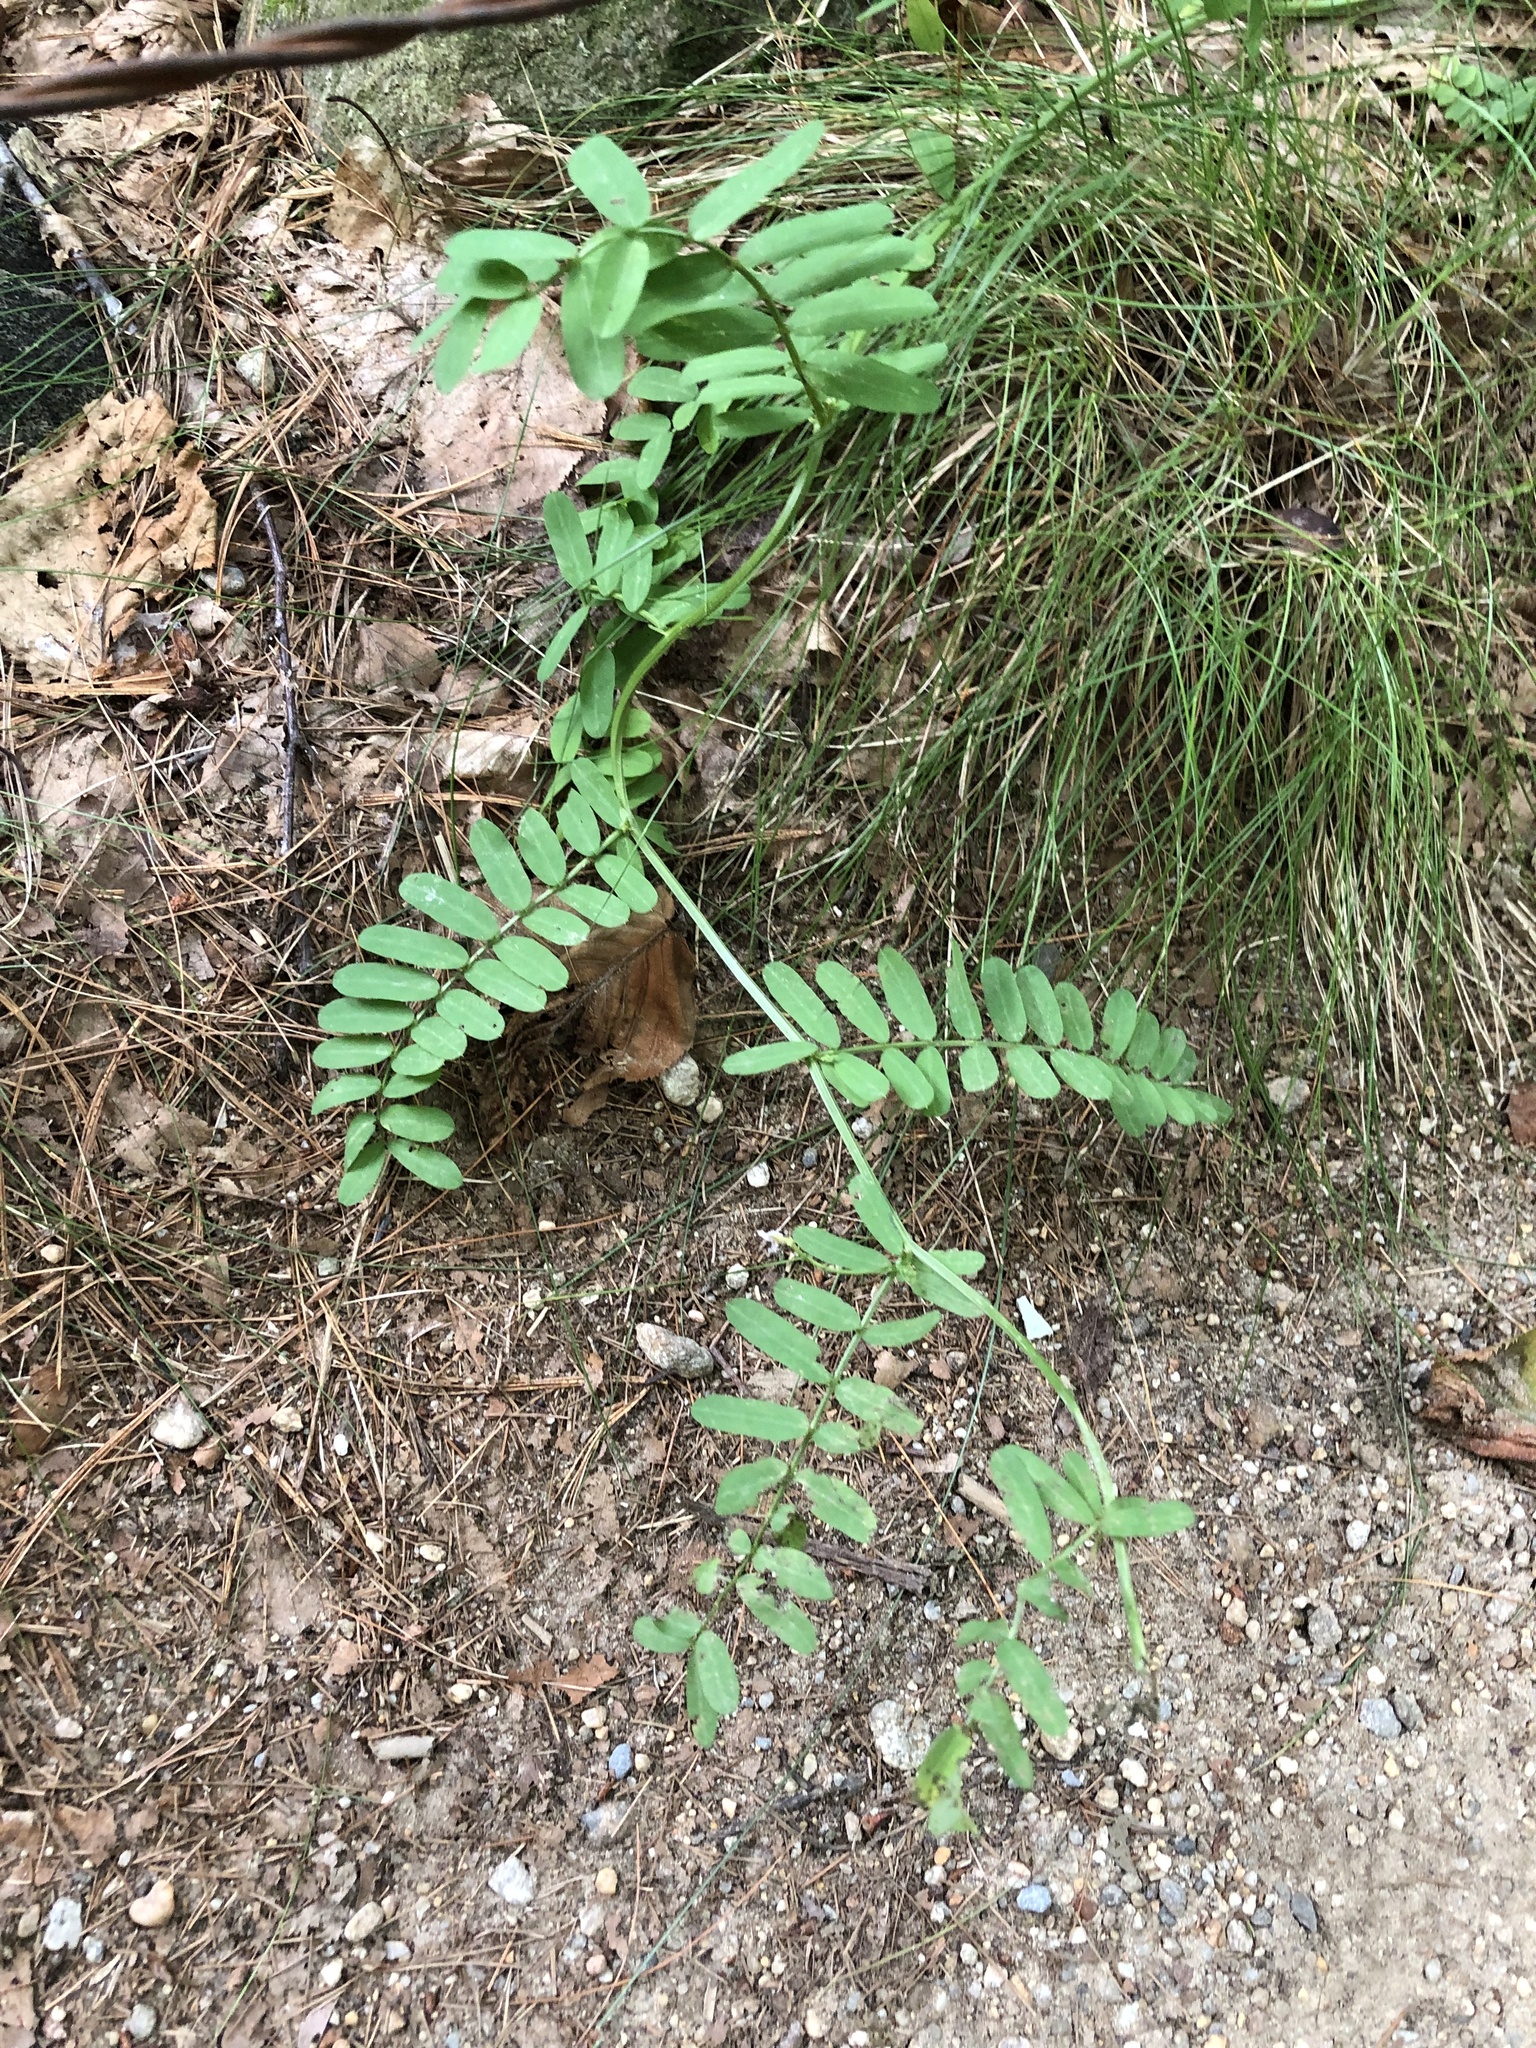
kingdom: Plantae
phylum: Tracheophyta
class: Magnoliopsida
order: Fabales
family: Fabaceae
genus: Coronilla
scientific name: Coronilla varia
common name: Crownvetch
